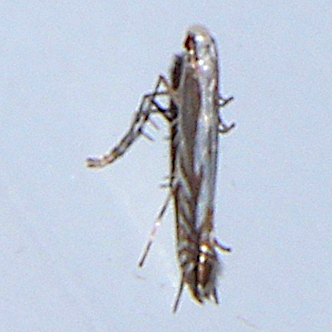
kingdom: Animalia
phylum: Arthropoda
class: Insecta
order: Lepidoptera
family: Gracillariidae
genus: Acrocercops
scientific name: Acrocercops leucotoma
